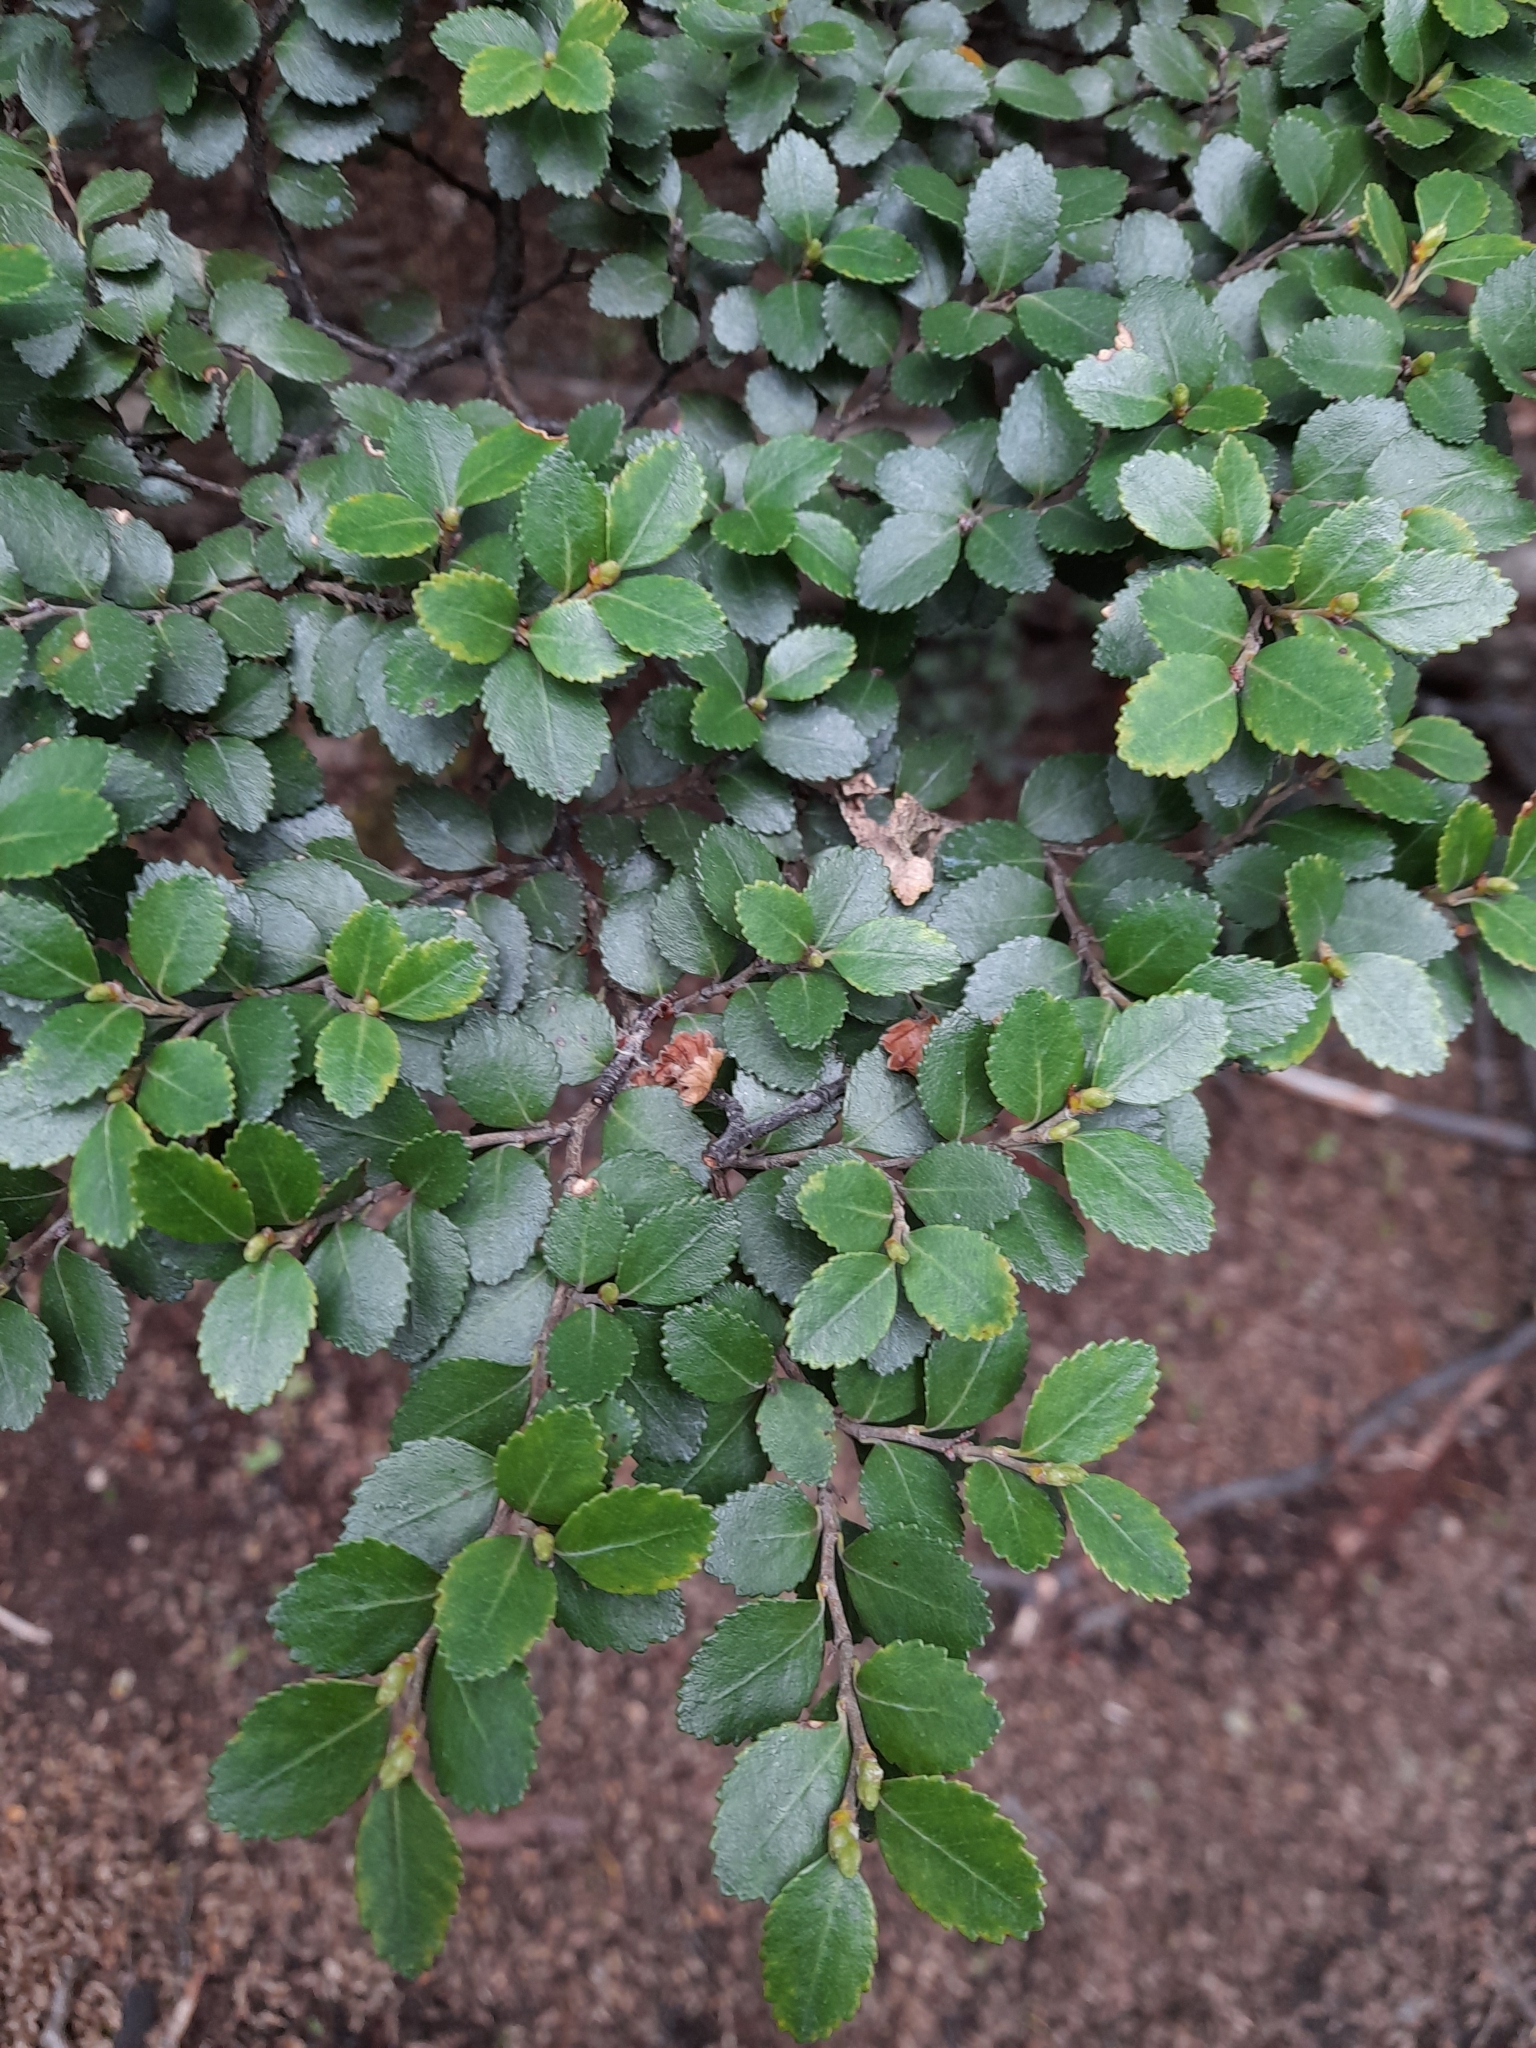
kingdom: Plantae
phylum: Tracheophyta
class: Magnoliopsida
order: Fagales
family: Nothofagaceae
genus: Nothofagus
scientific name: Nothofagus betuloides
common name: Magellan's beech
